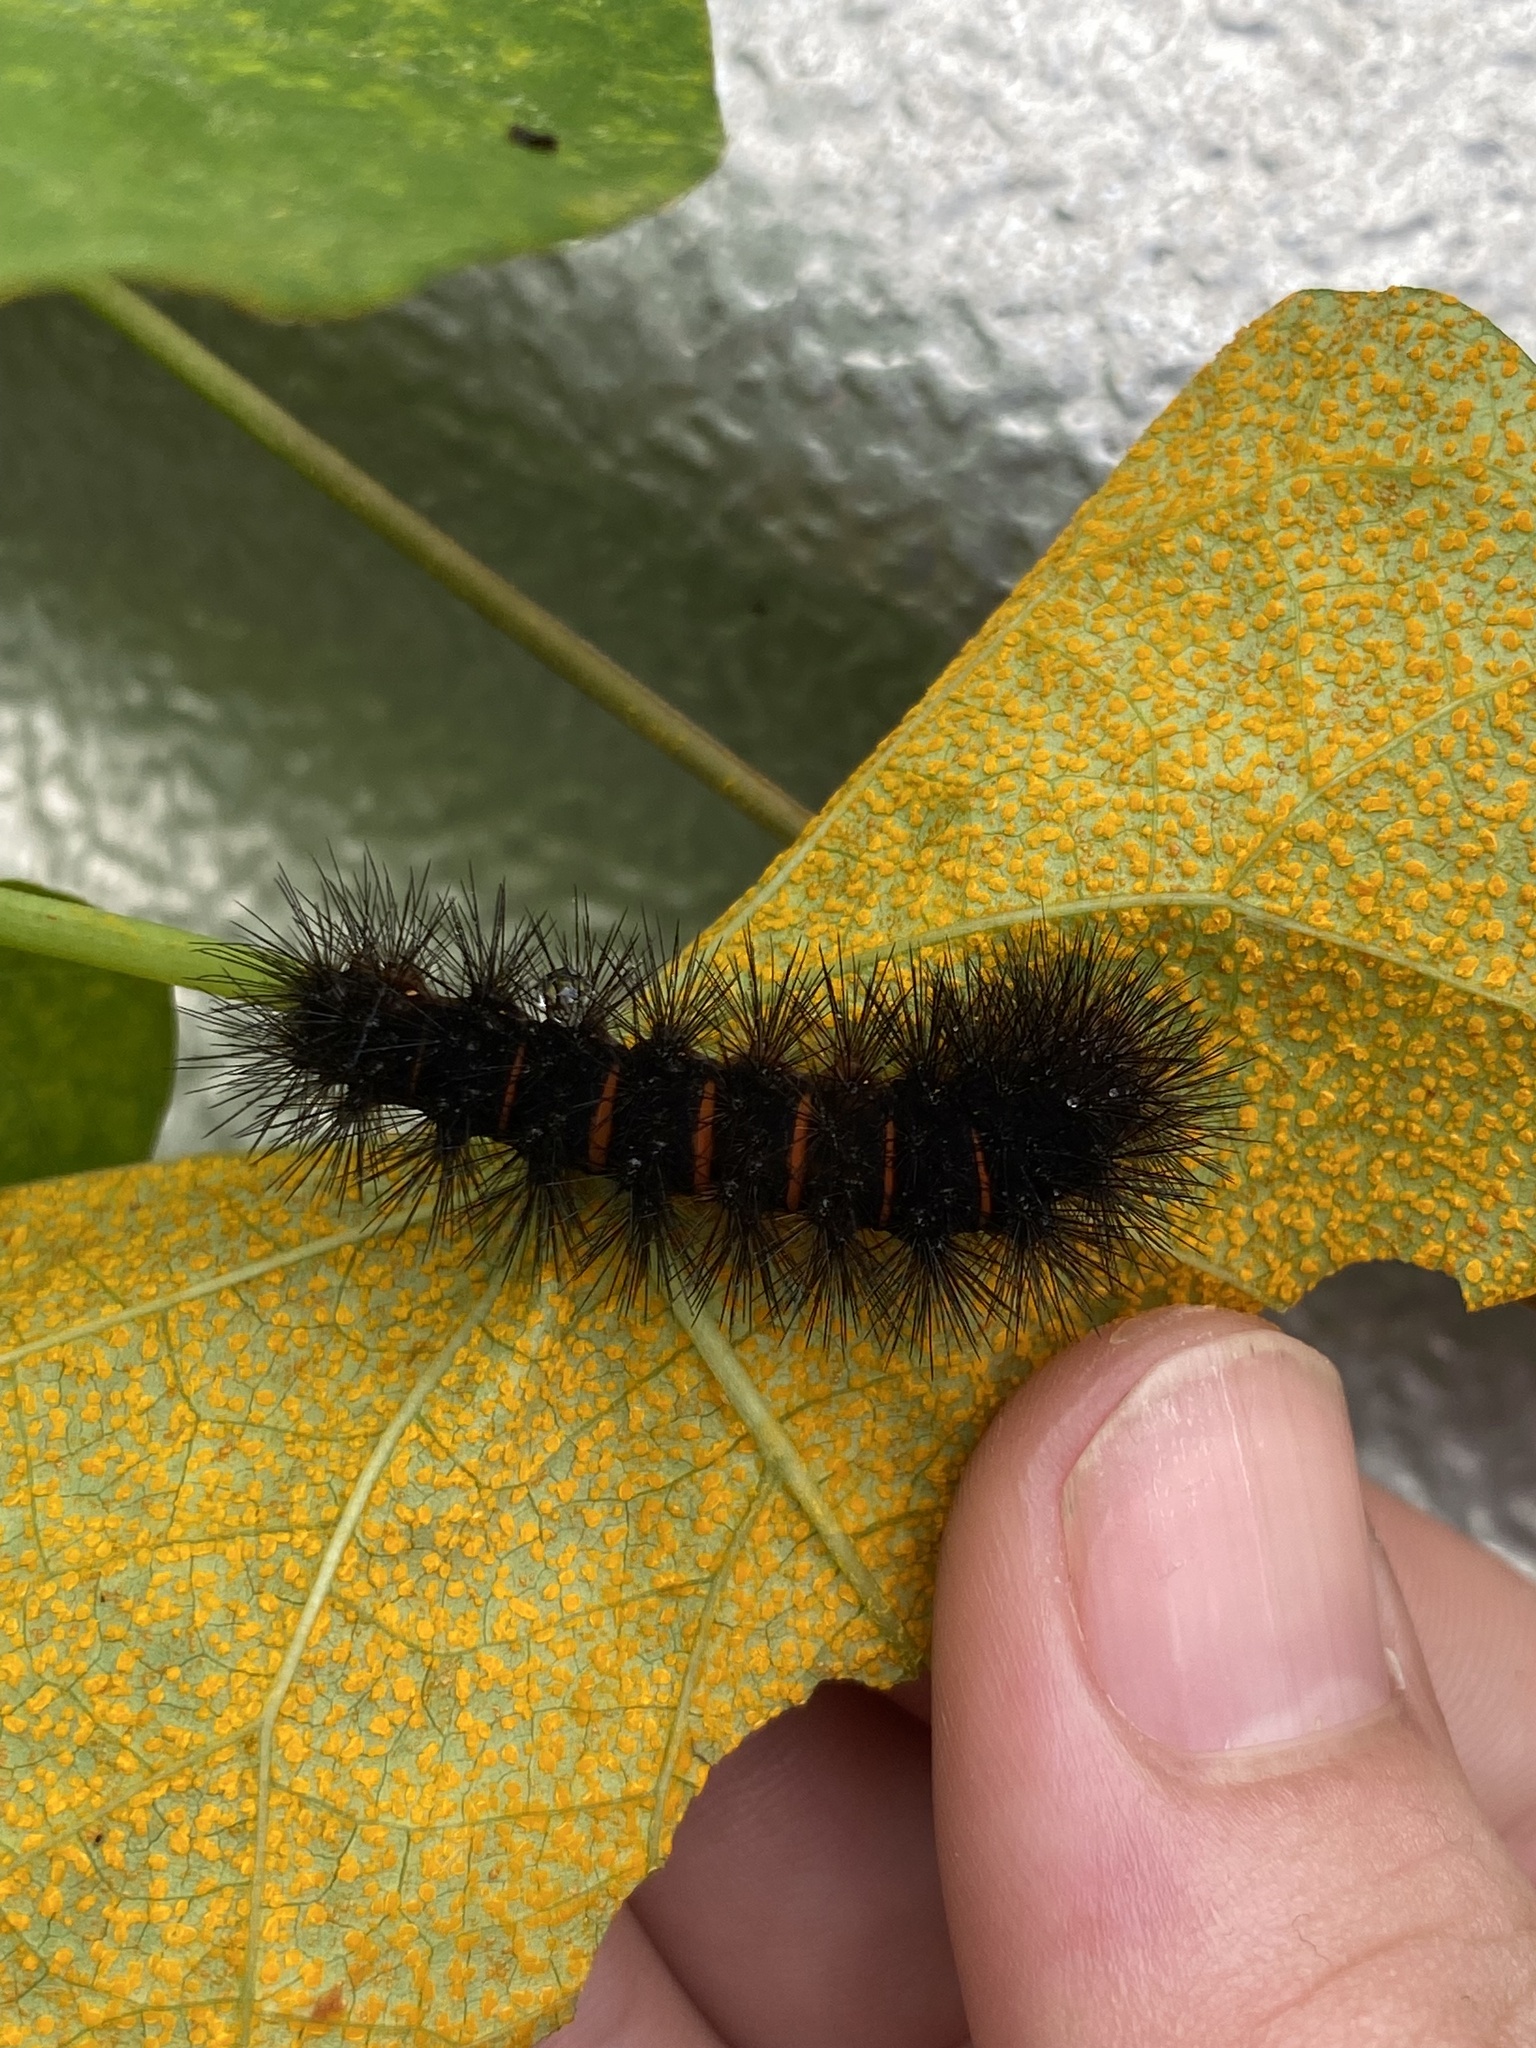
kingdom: Animalia
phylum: Arthropoda
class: Insecta
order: Lepidoptera
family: Erebidae
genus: Hypercompe
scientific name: Hypercompe scribonia
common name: Giant leopard moth
